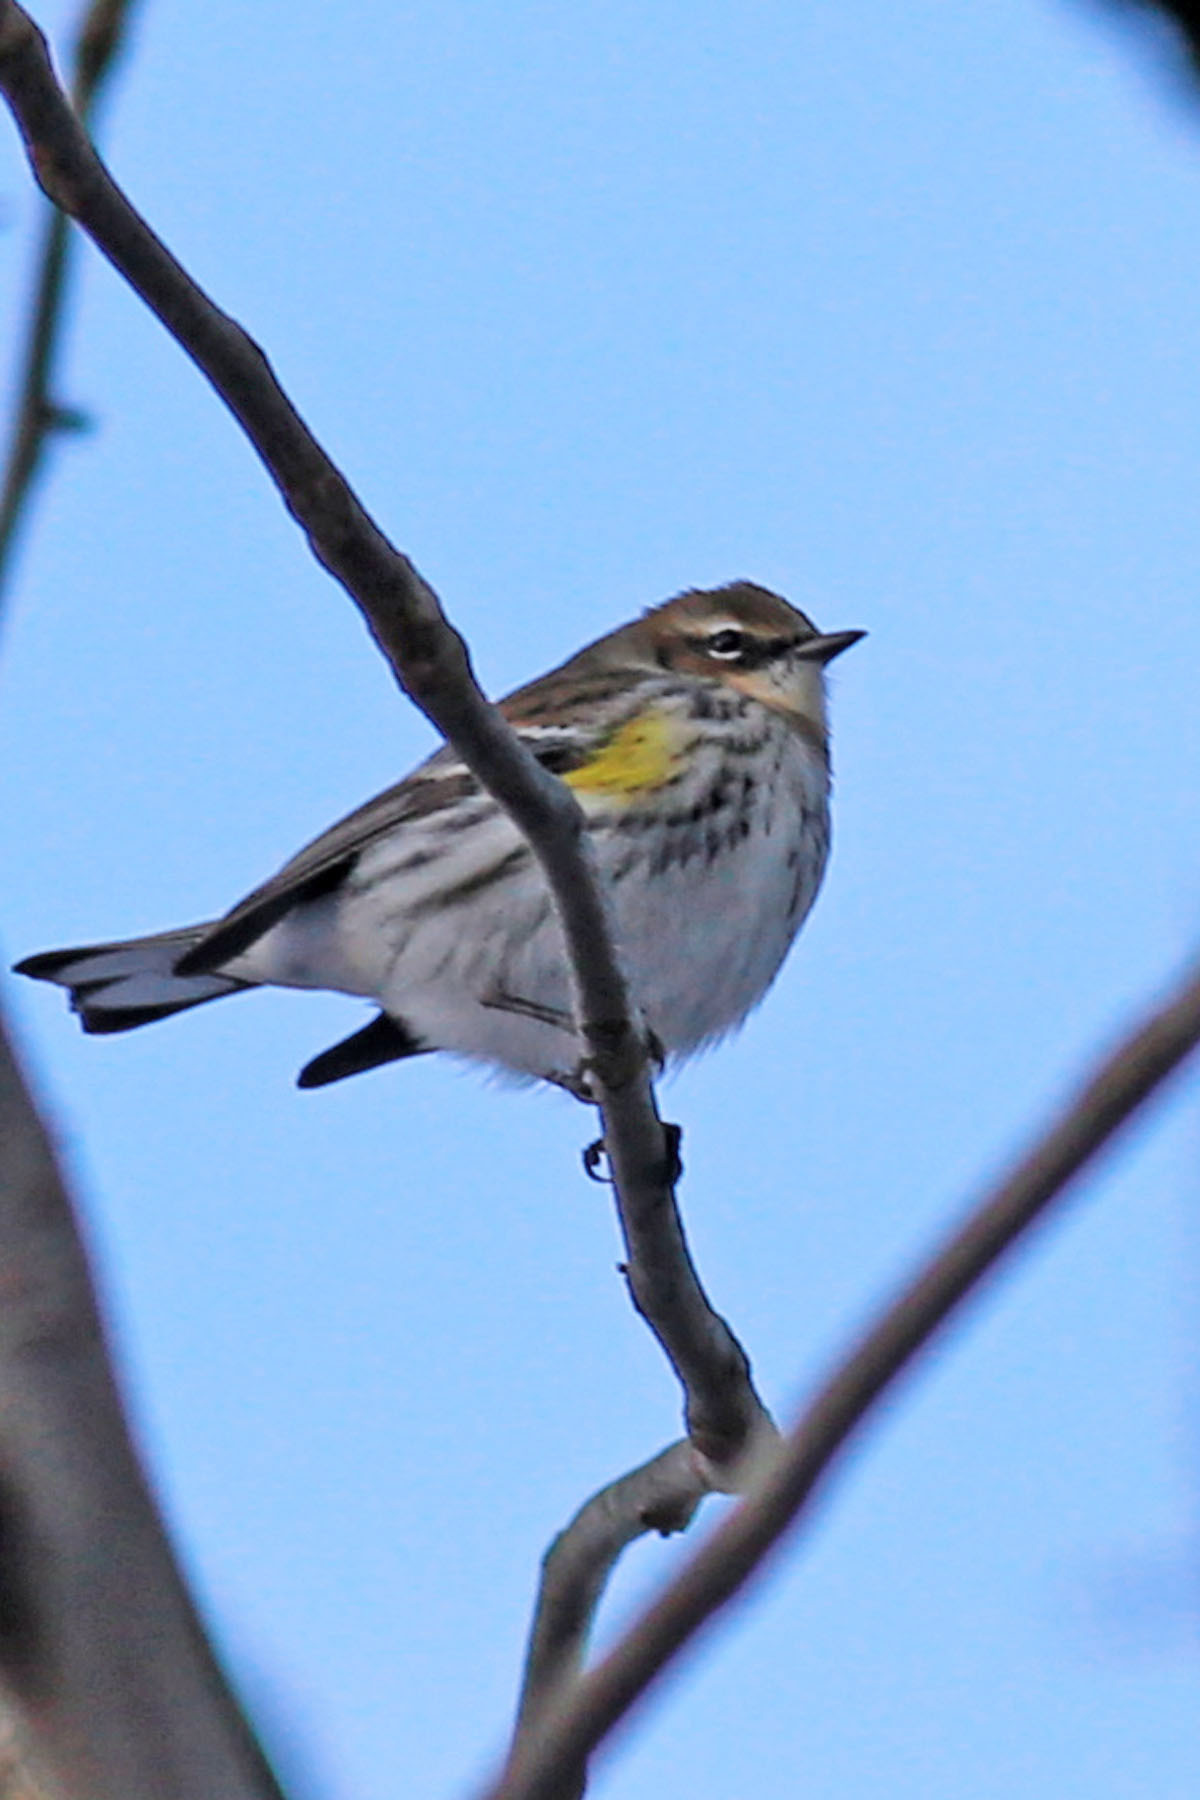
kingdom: Animalia
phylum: Chordata
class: Aves
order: Passeriformes
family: Parulidae
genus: Setophaga
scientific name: Setophaga coronata
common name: Myrtle warbler
